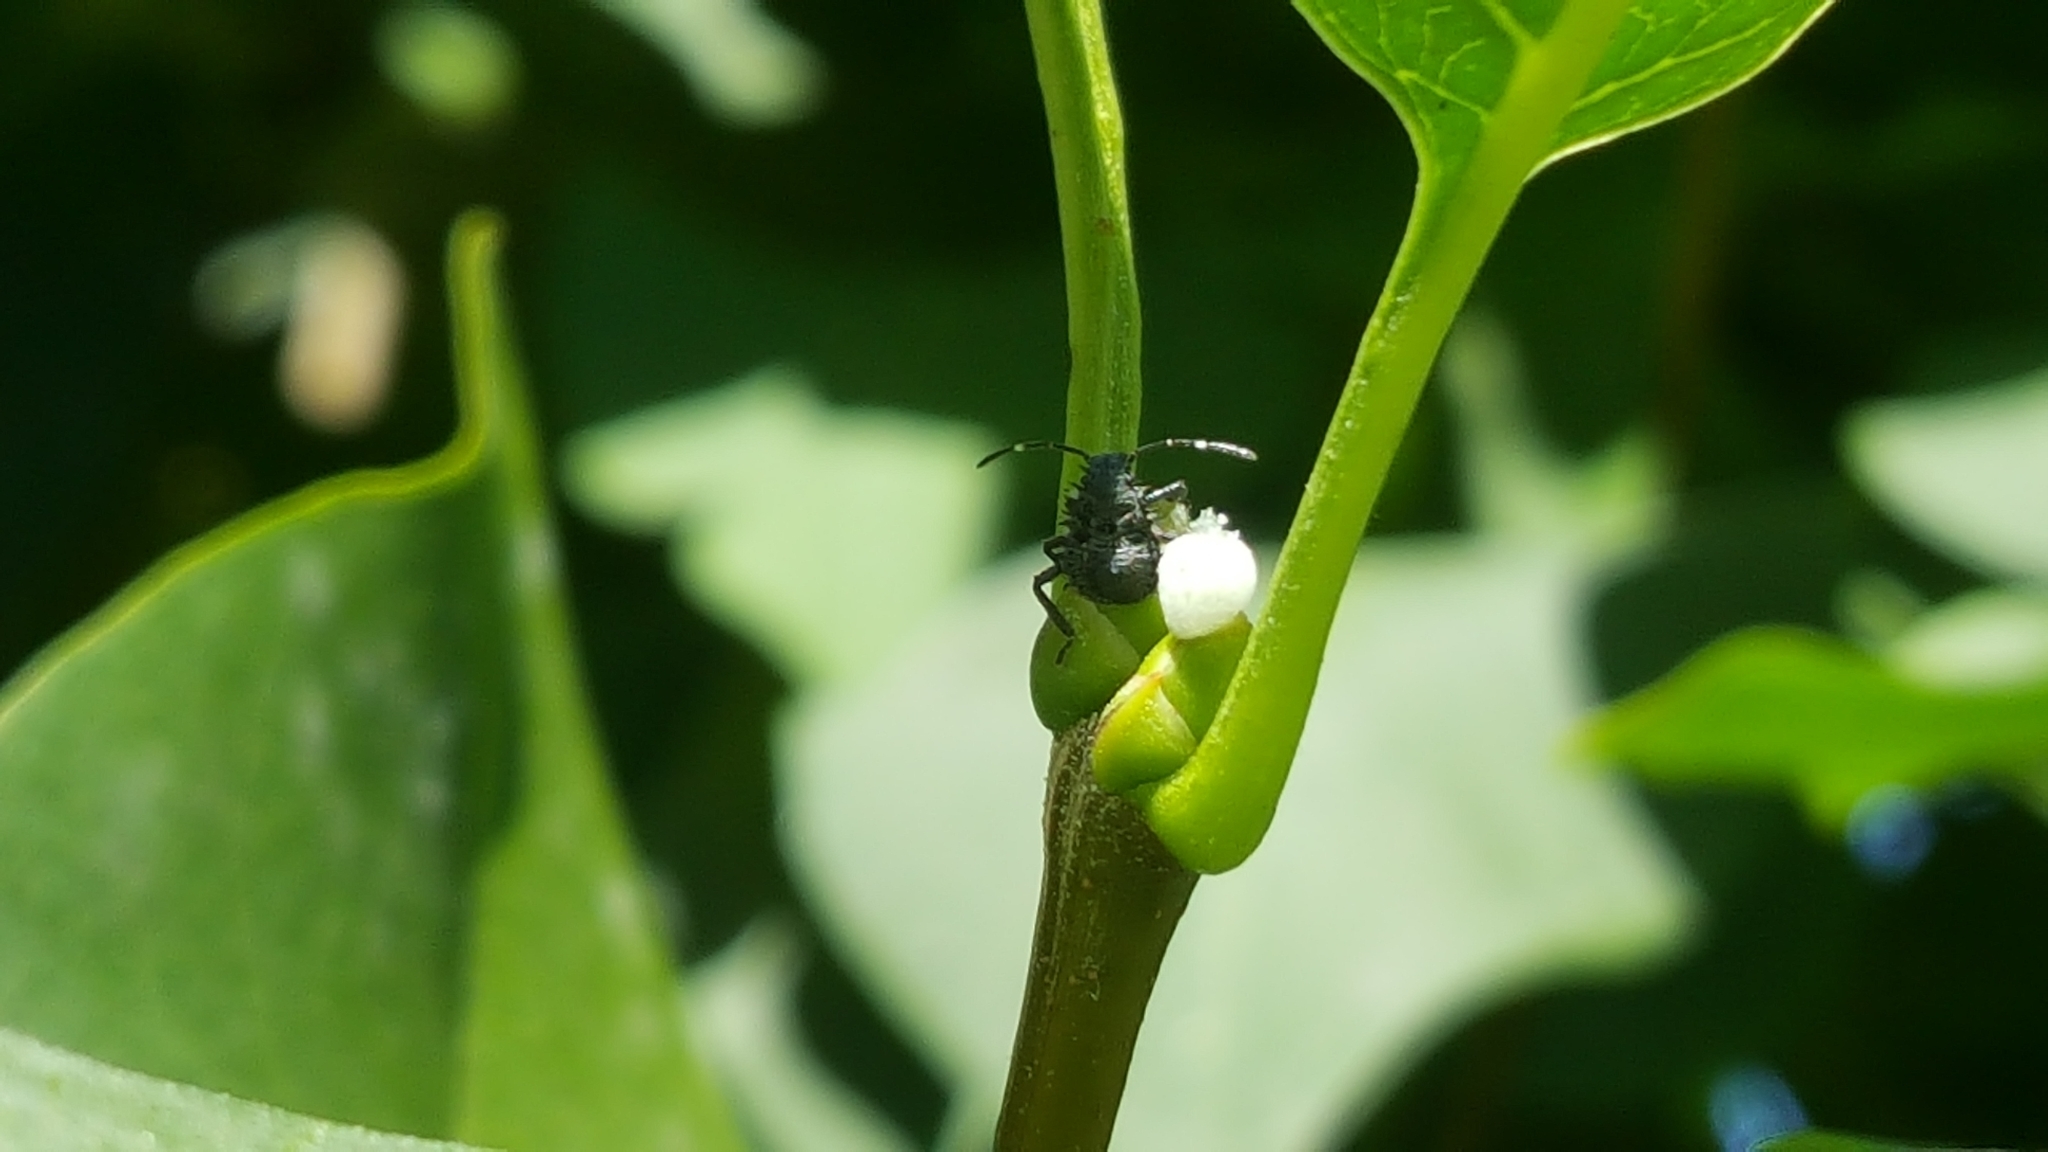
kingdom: Animalia
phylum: Arthropoda
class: Insecta
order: Hemiptera
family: Pentatomidae
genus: Halyomorpha
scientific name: Halyomorpha halys
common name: Brown marmorated stink bug
